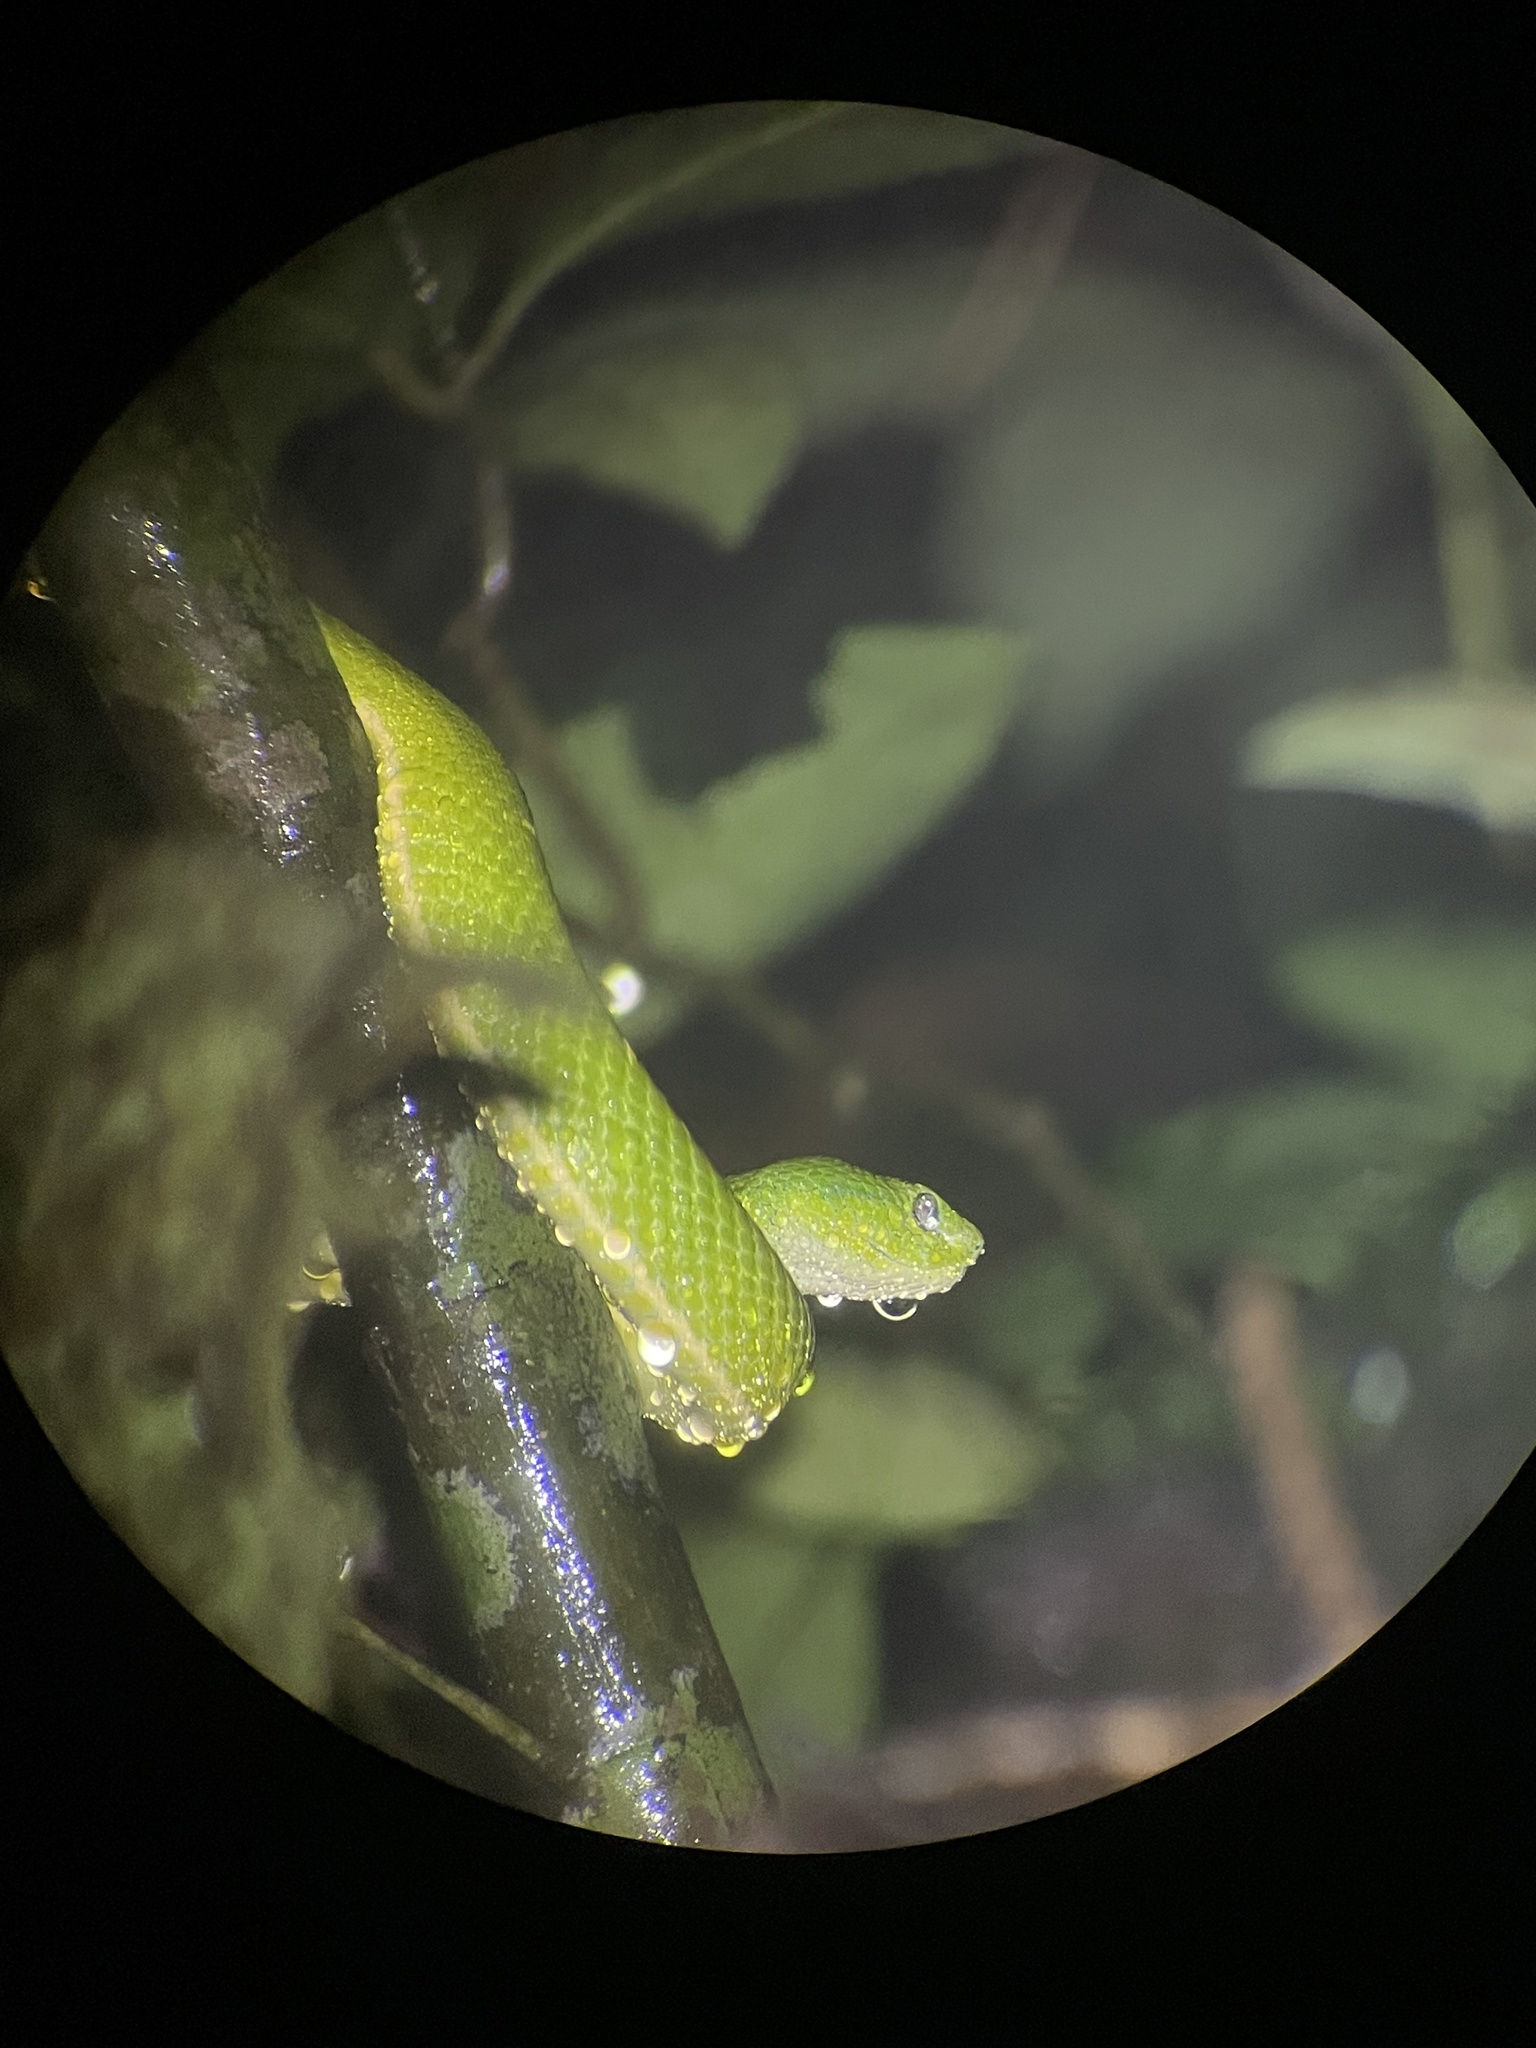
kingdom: Animalia
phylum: Chordata
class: Squamata
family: Viperidae
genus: Bothriechis
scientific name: Bothriechis lateralis
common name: Coffee palm viper
